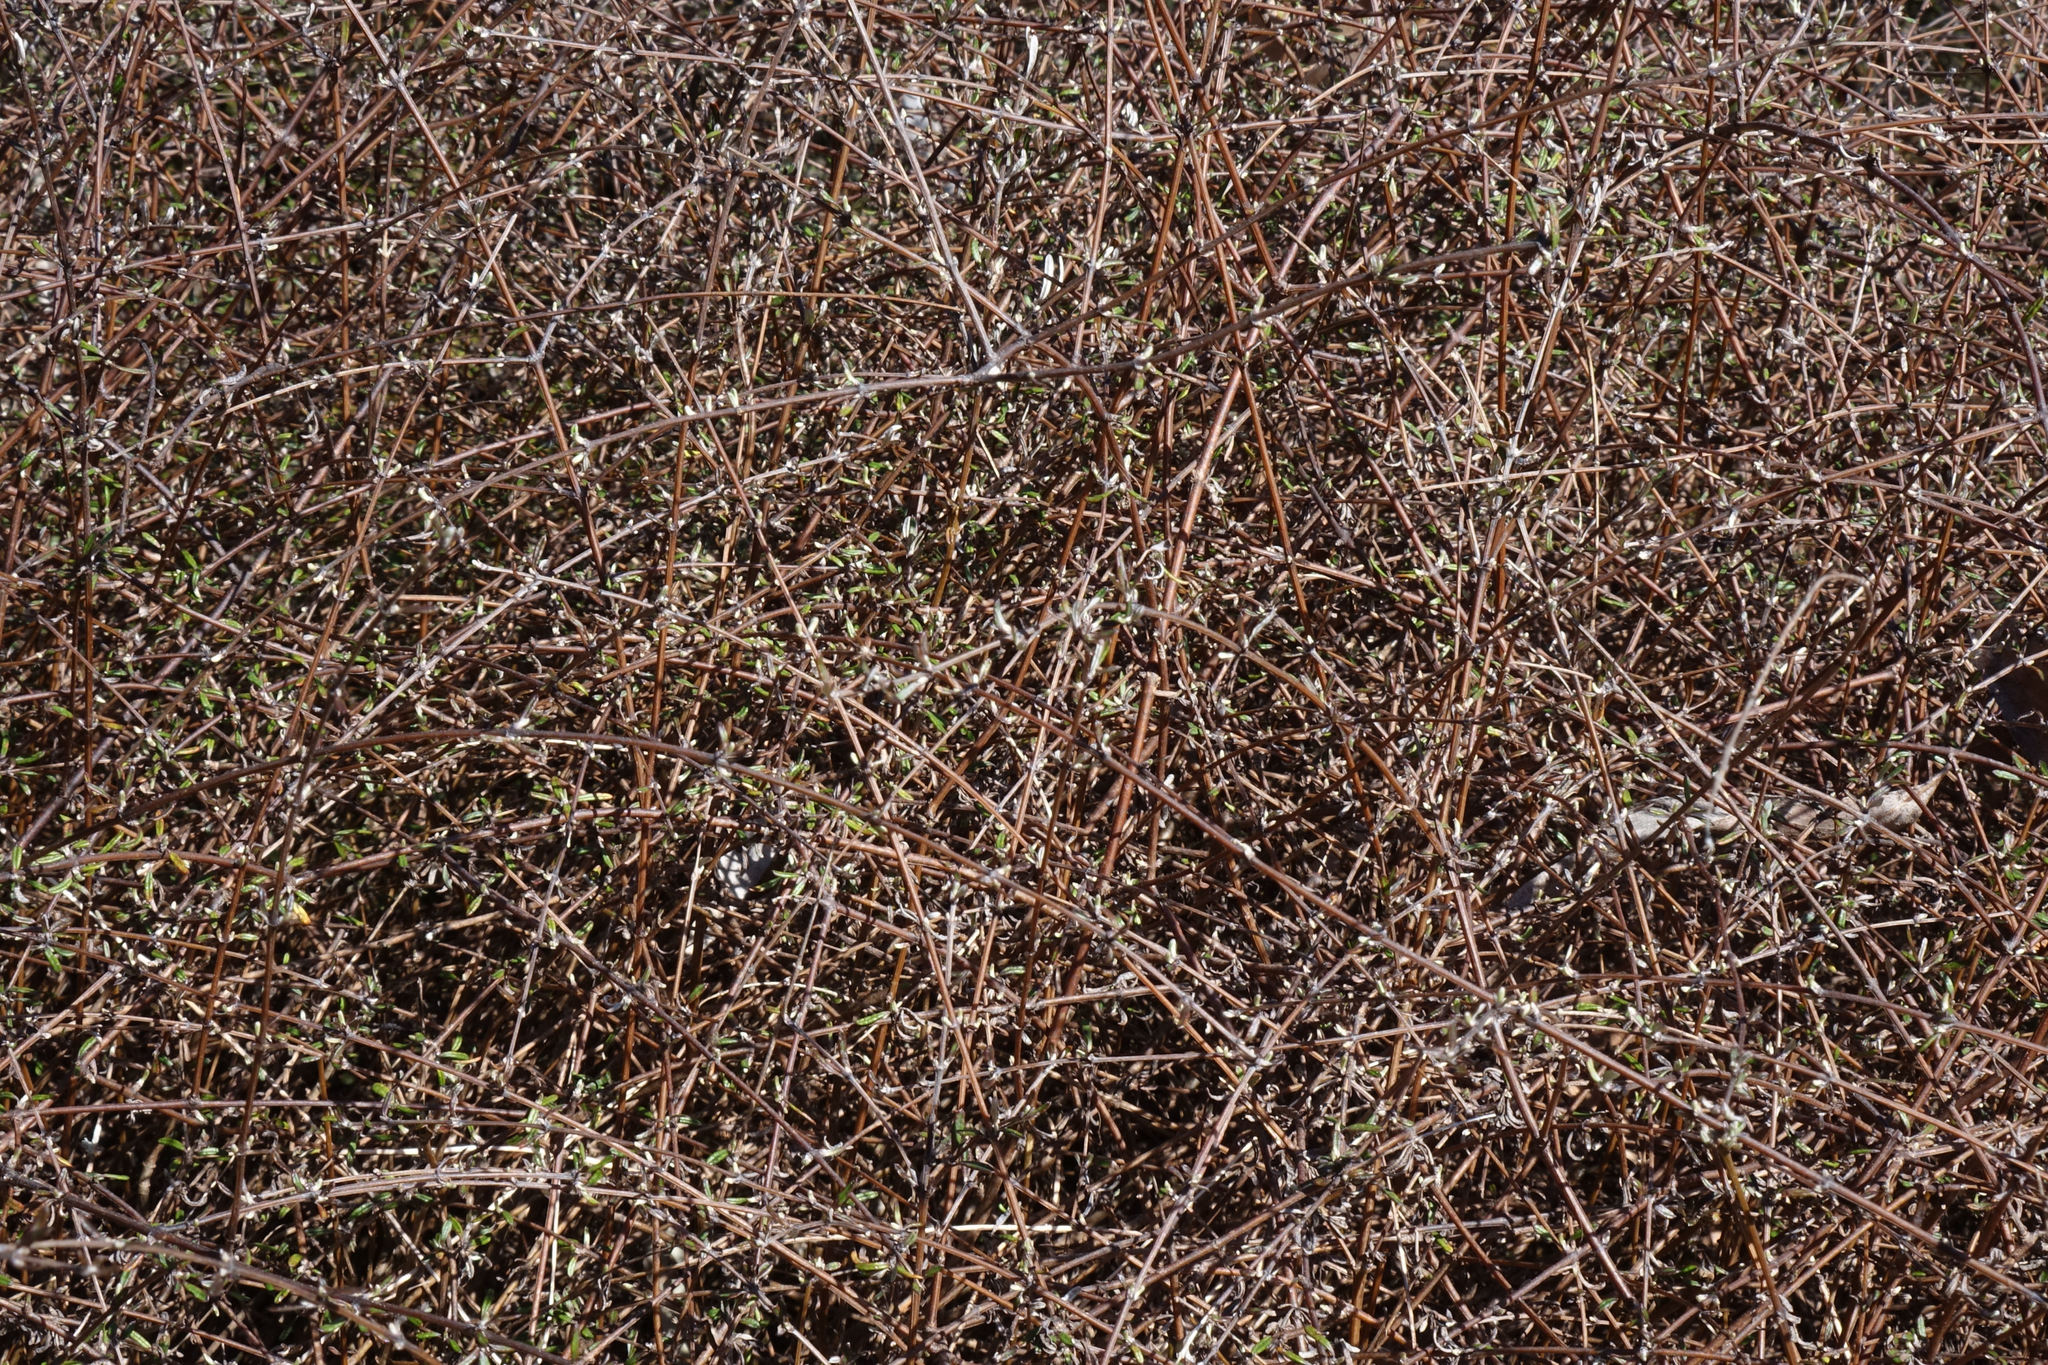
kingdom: Plantae
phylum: Tracheophyta
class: Magnoliopsida
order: Asterales
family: Asteraceae
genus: Olearia
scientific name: Olearia bullata
